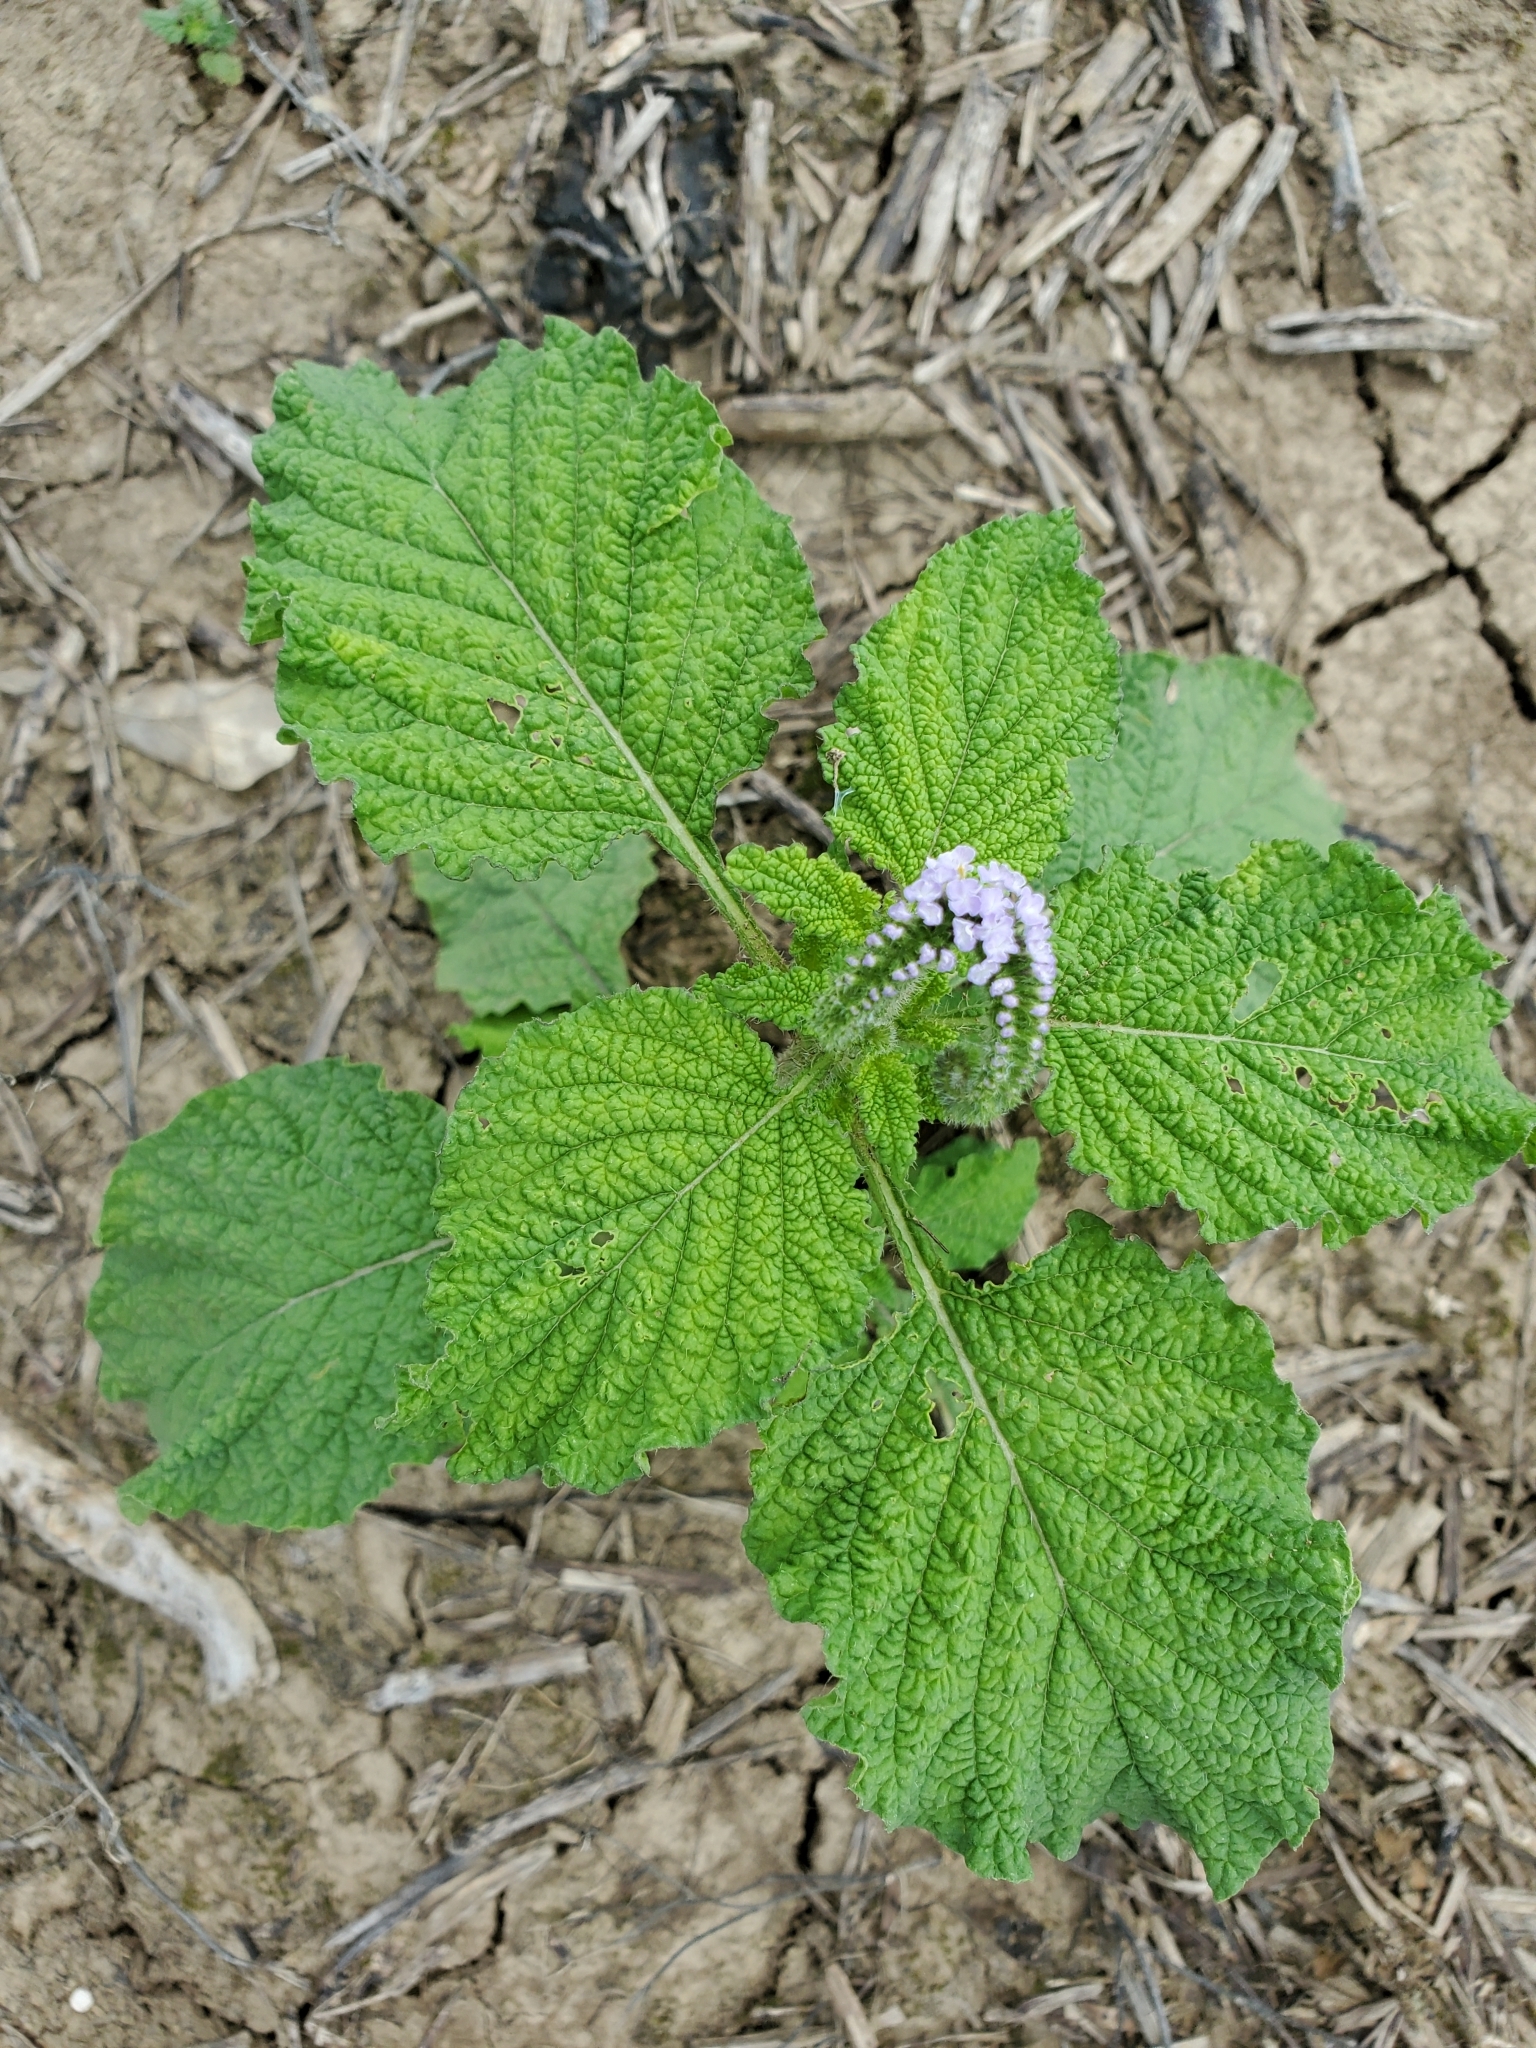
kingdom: Plantae
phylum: Tracheophyta
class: Magnoliopsida
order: Boraginales
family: Heliotropiaceae
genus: Heliotropium
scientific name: Heliotropium indicum
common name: Indian heliotrope
